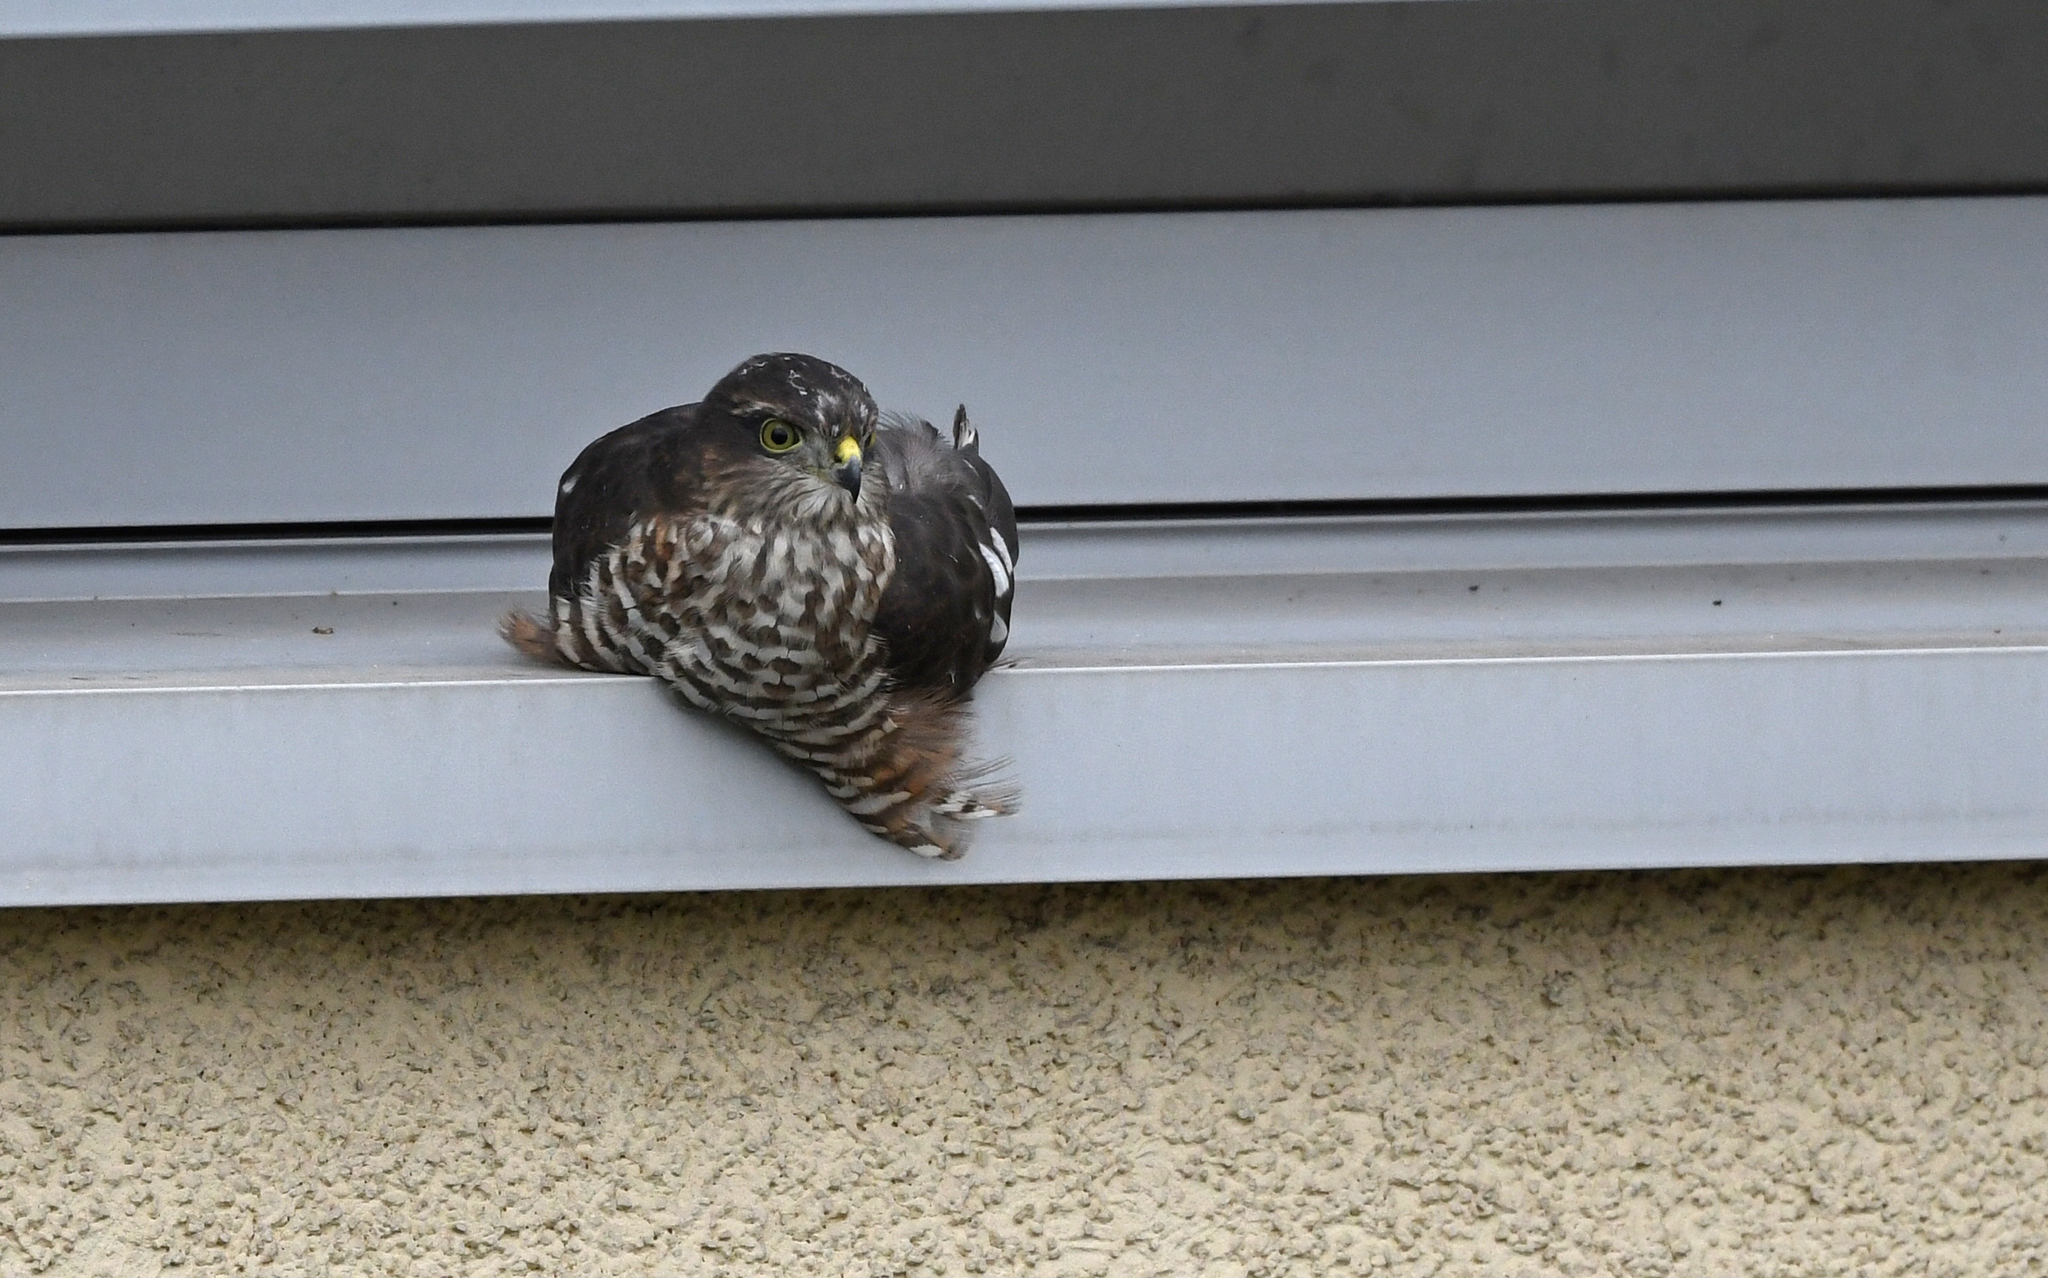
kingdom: Animalia
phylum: Chordata
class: Aves
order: Accipitriformes
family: Accipitridae
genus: Accipiter
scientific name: Accipiter nisus
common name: Eurasian sparrowhawk
